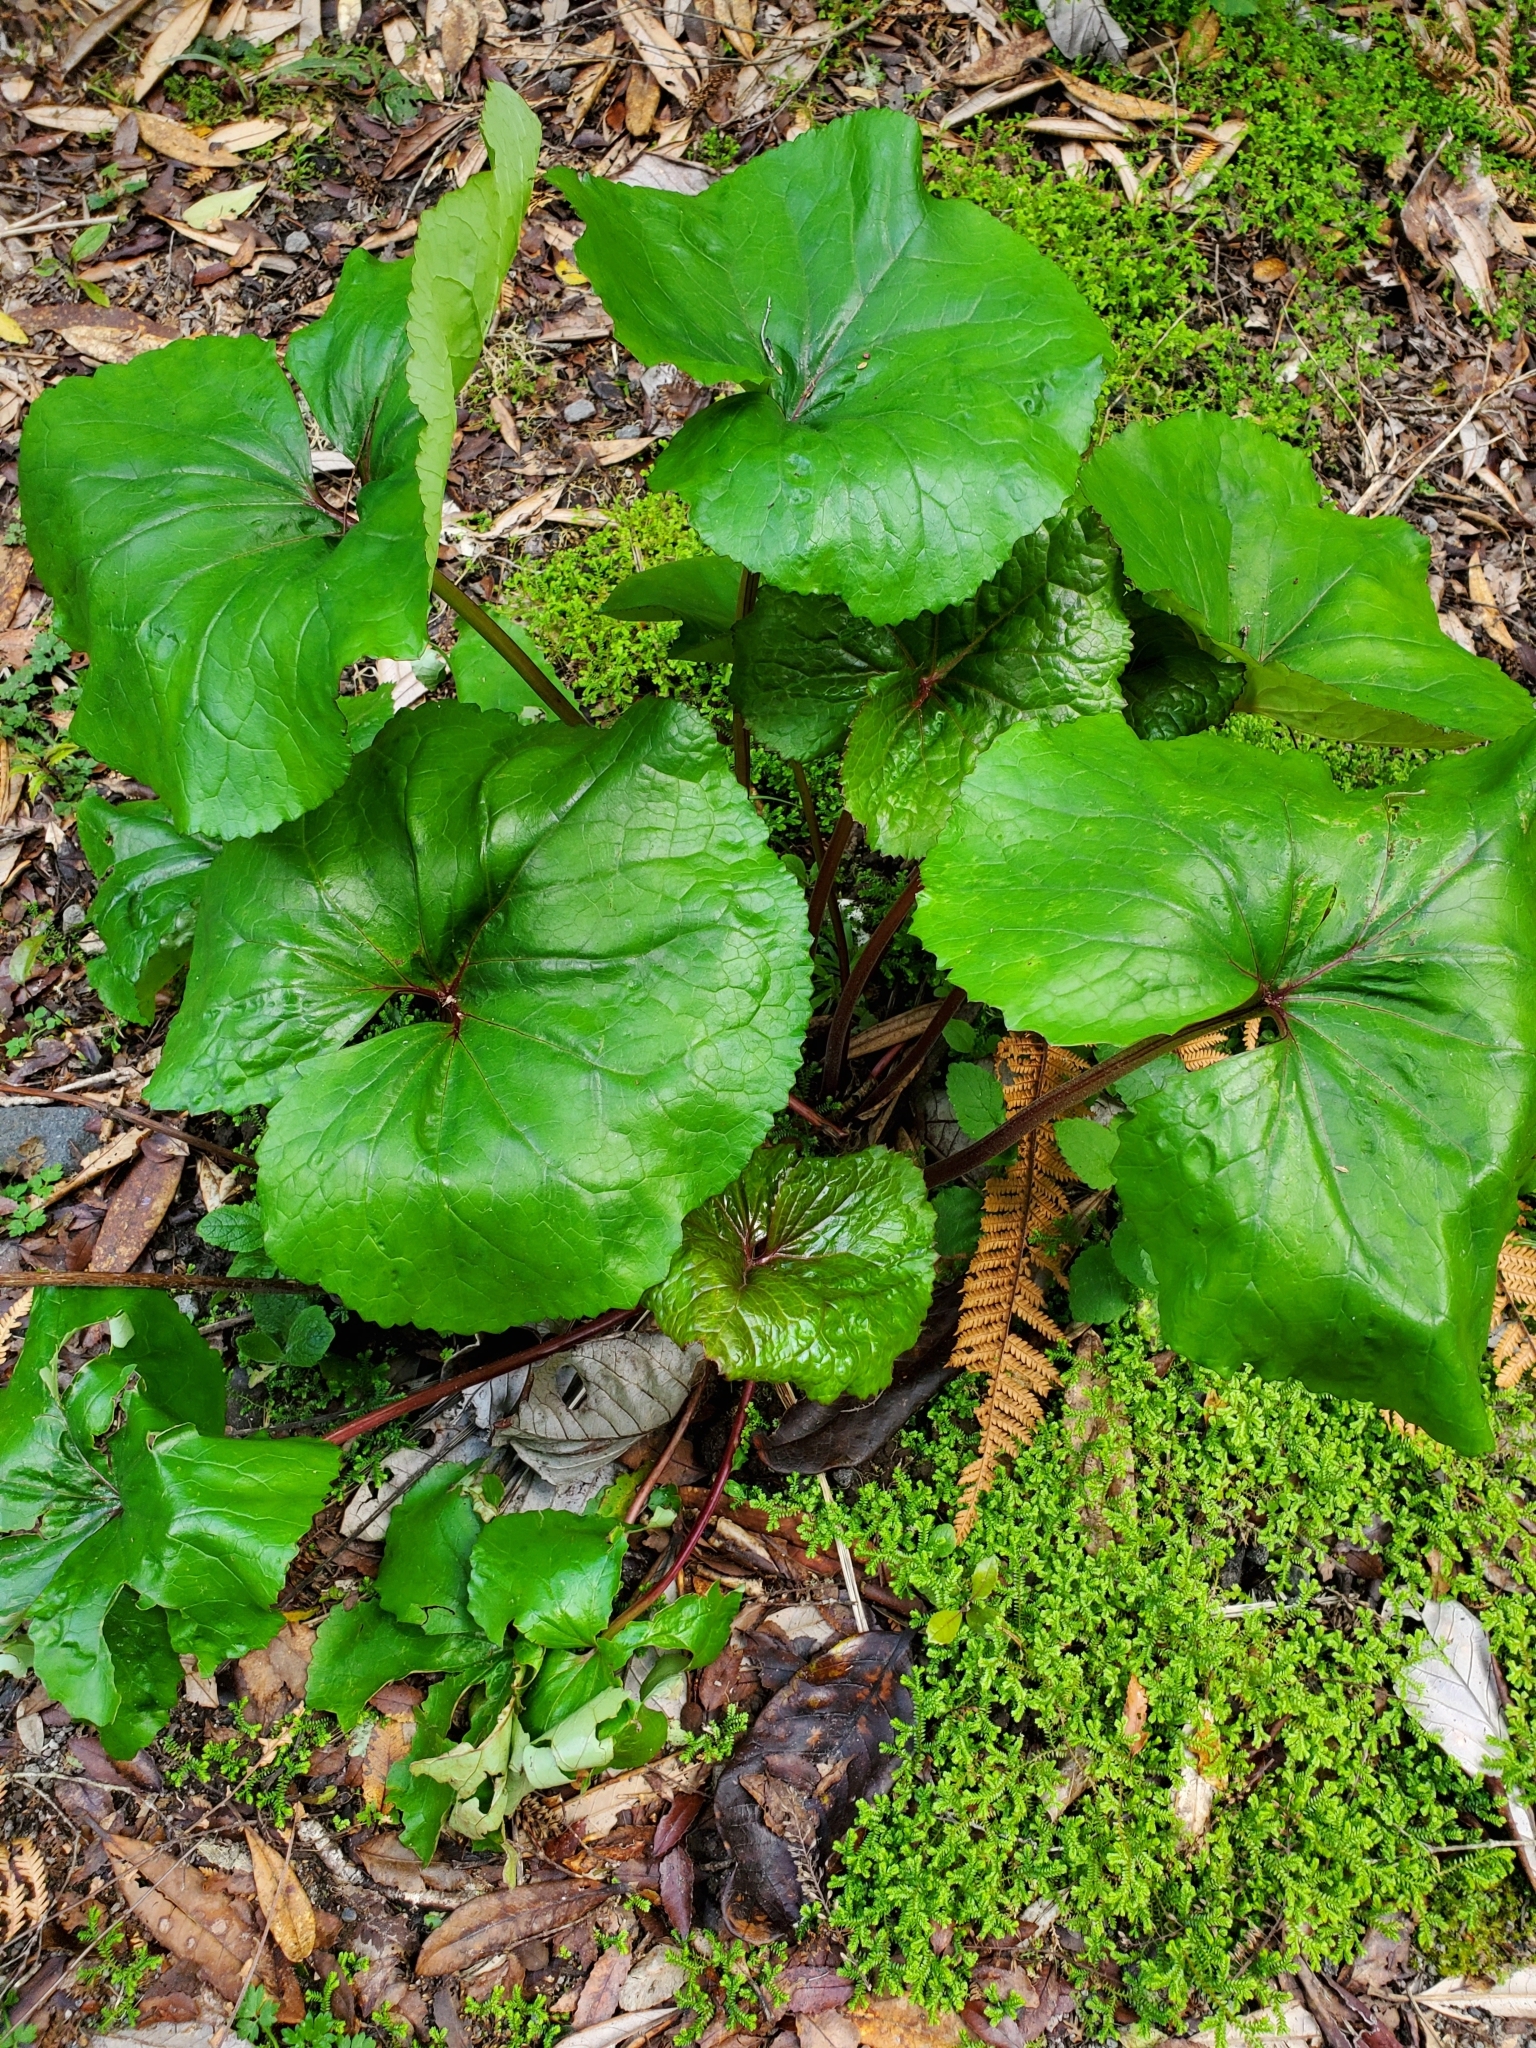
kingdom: Plantae
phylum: Tracheophyta
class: Magnoliopsida
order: Asterales
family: Asteraceae
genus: Farfugium
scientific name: Farfugium japonicum
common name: Leopardplant
